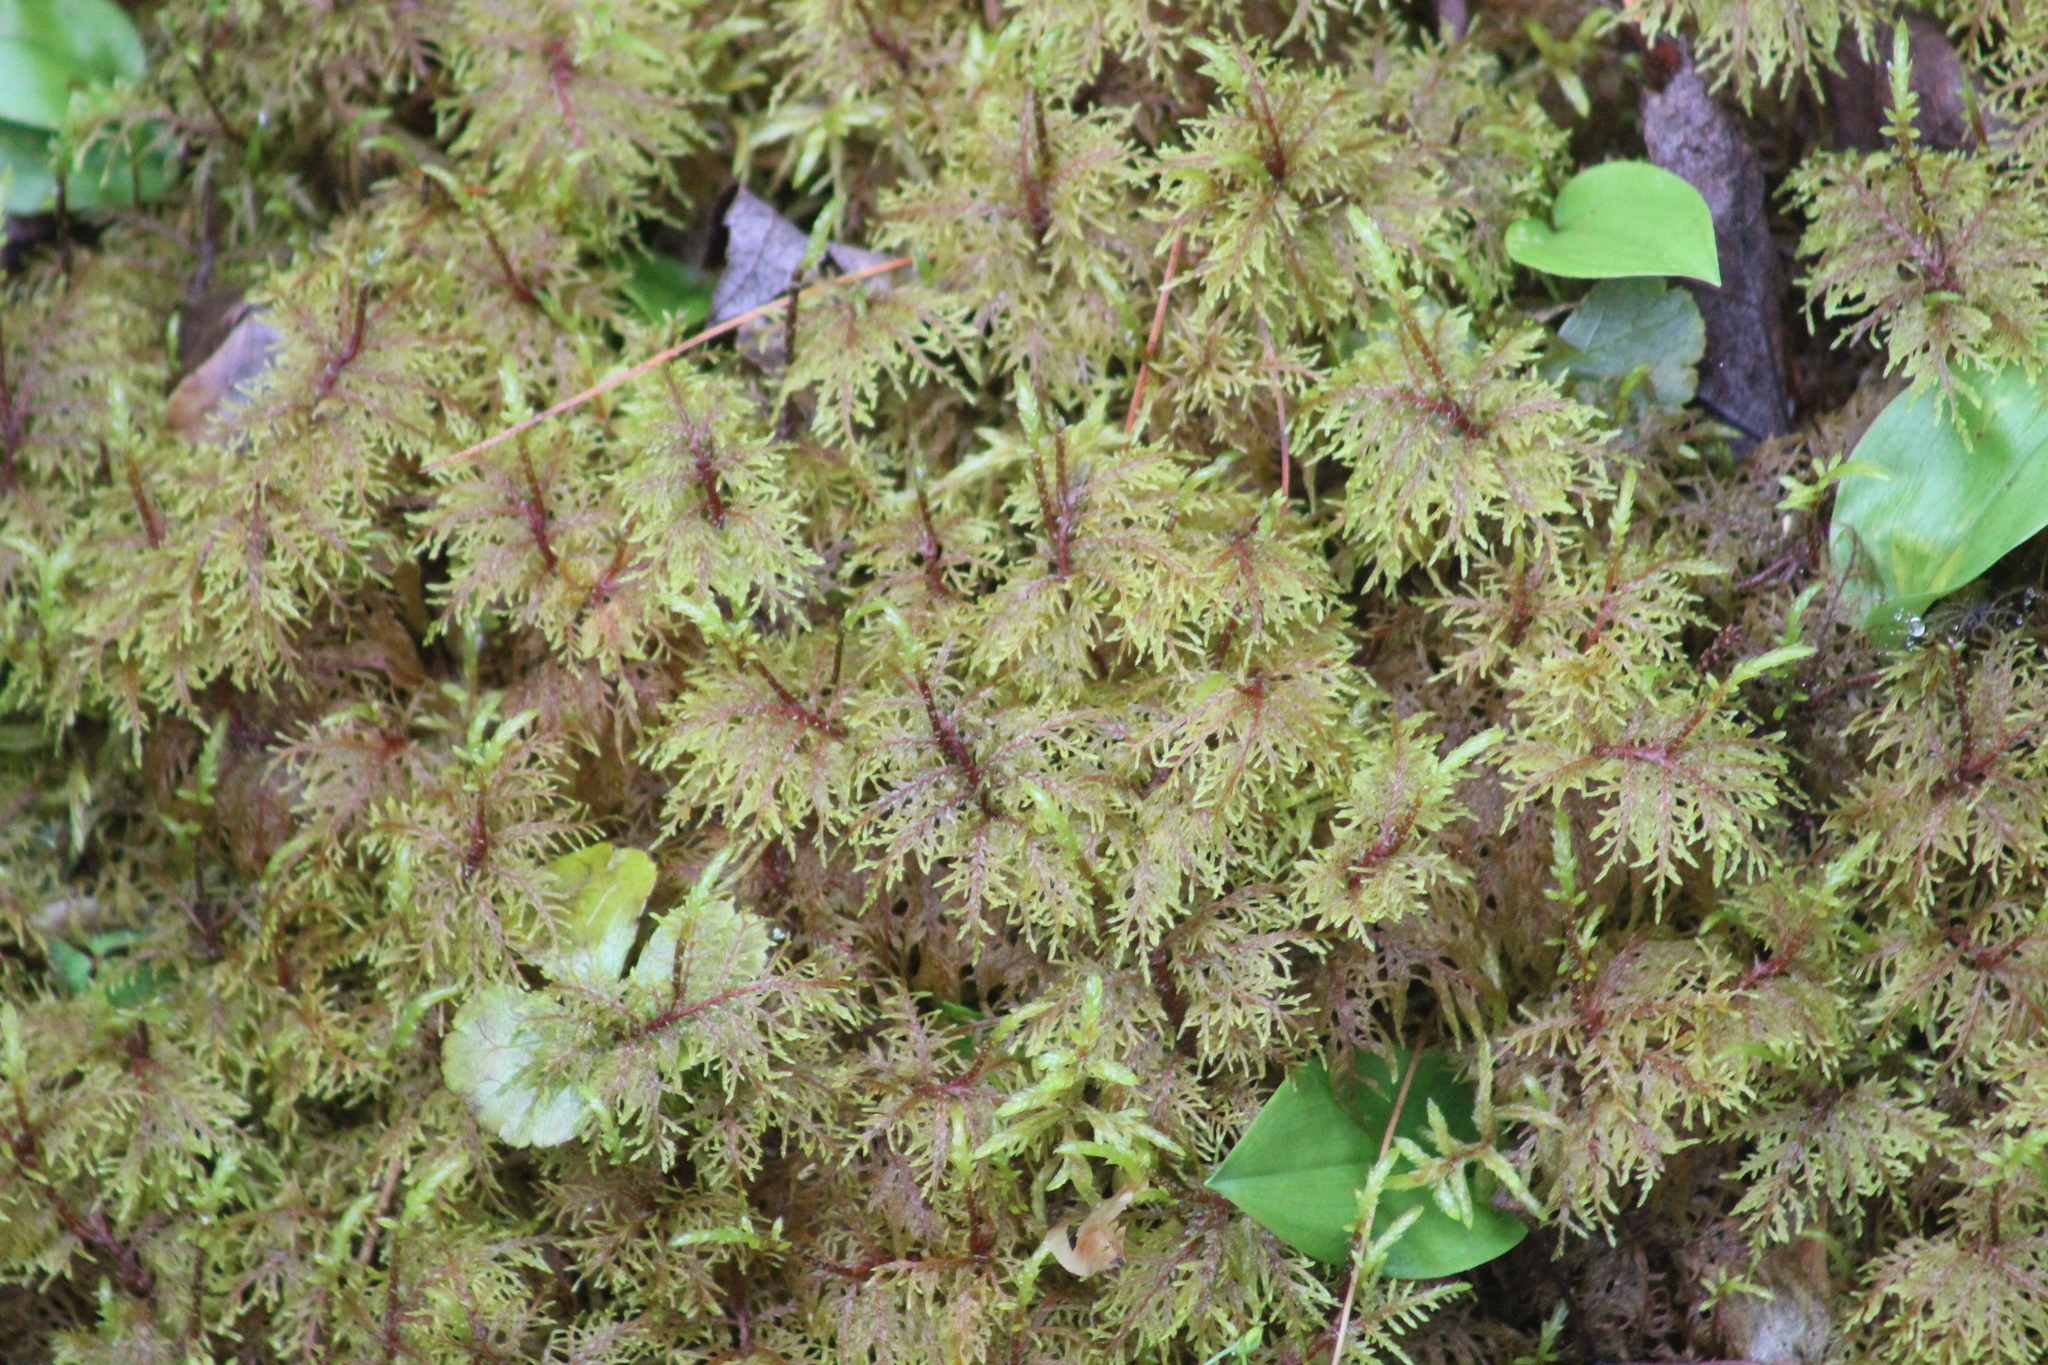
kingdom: Plantae
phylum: Bryophyta
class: Bryopsida
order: Hypnales
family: Hylocomiaceae
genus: Hylocomium
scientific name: Hylocomium splendens
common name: Stairstep moss
